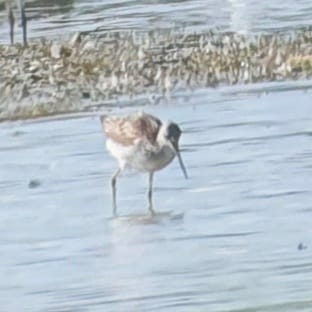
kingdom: Animalia
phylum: Chordata
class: Aves
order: Charadriiformes
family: Scolopacidae
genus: Tringa
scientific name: Tringa nebularia
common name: Common greenshank
